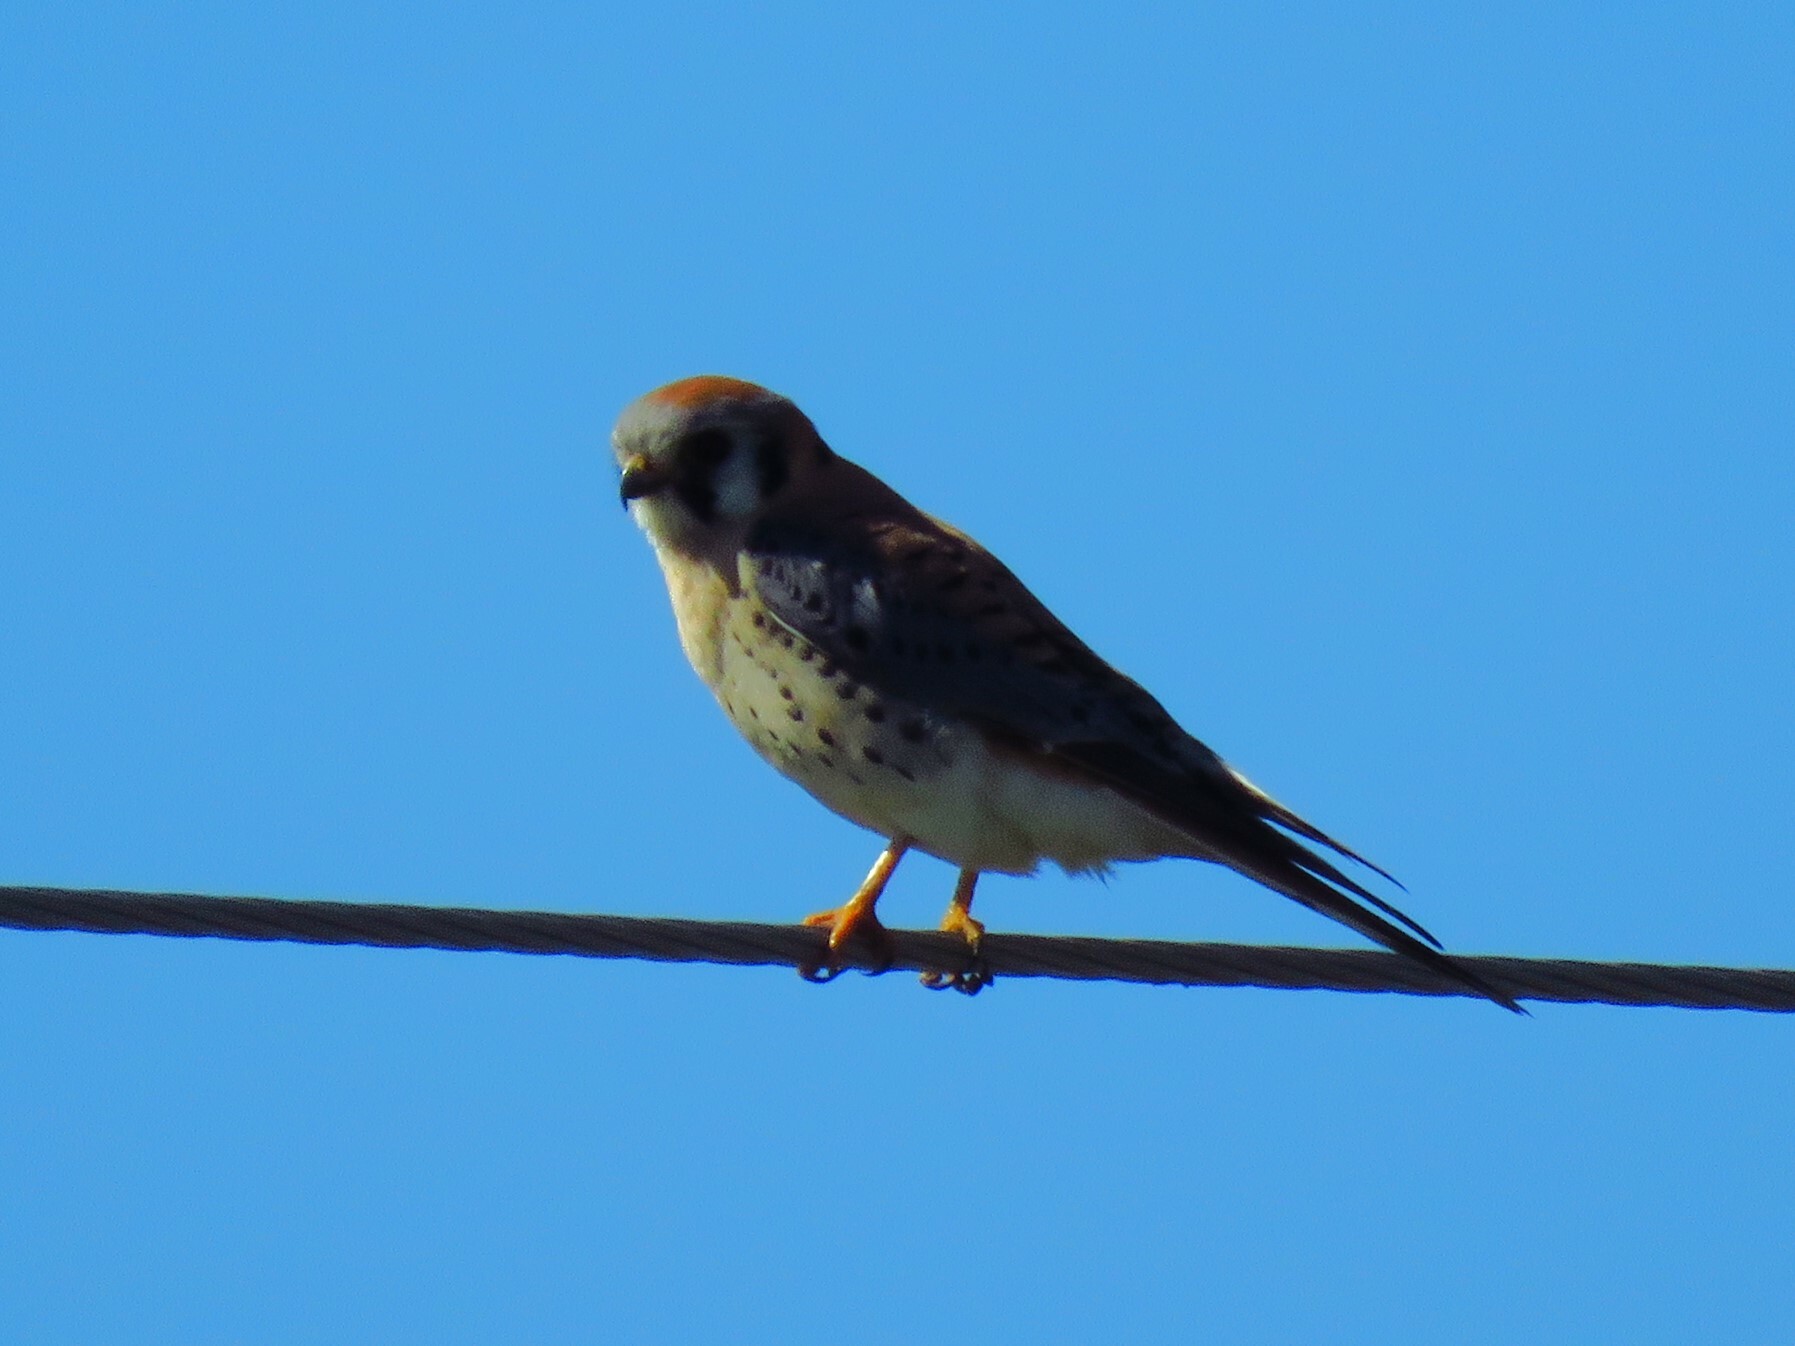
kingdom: Animalia
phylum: Chordata
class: Aves
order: Falconiformes
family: Falconidae
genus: Falco
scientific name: Falco sparverius
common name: American kestrel
